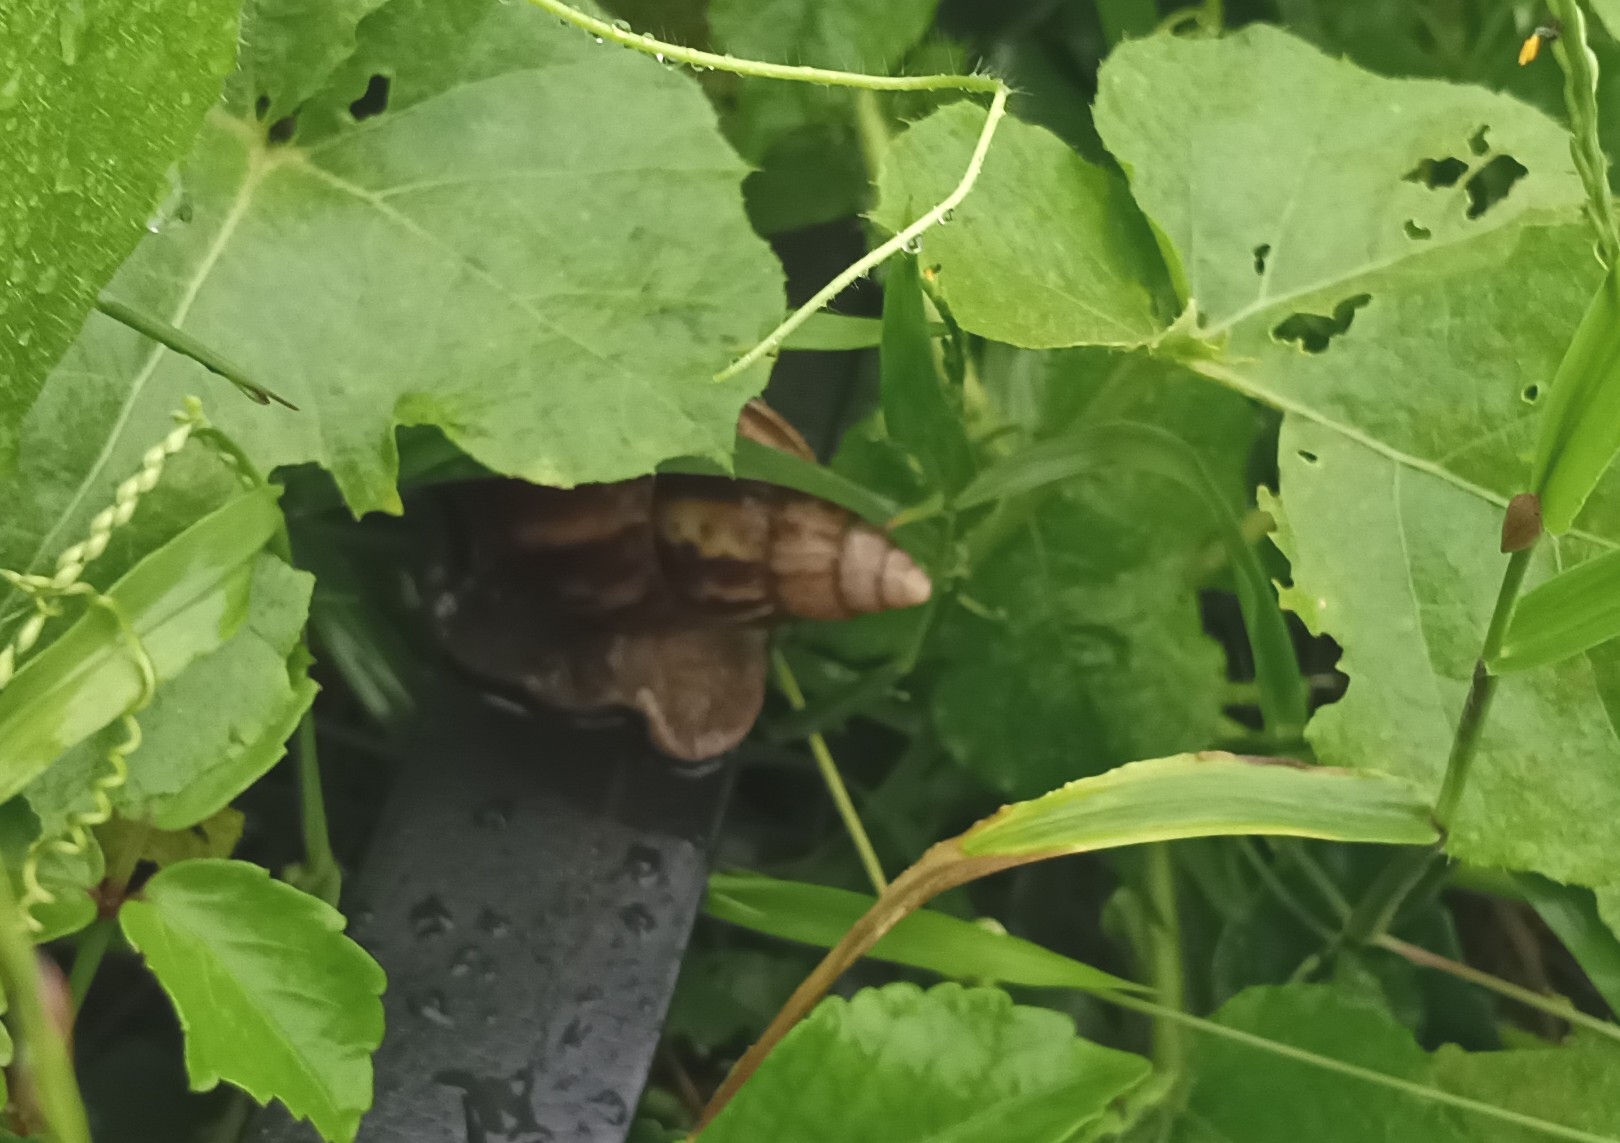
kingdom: Animalia
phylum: Mollusca
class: Gastropoda
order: Stylommatophora
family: Achatinidae
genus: Lissachatina
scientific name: Lissachatina fulica
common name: Giant african snail
